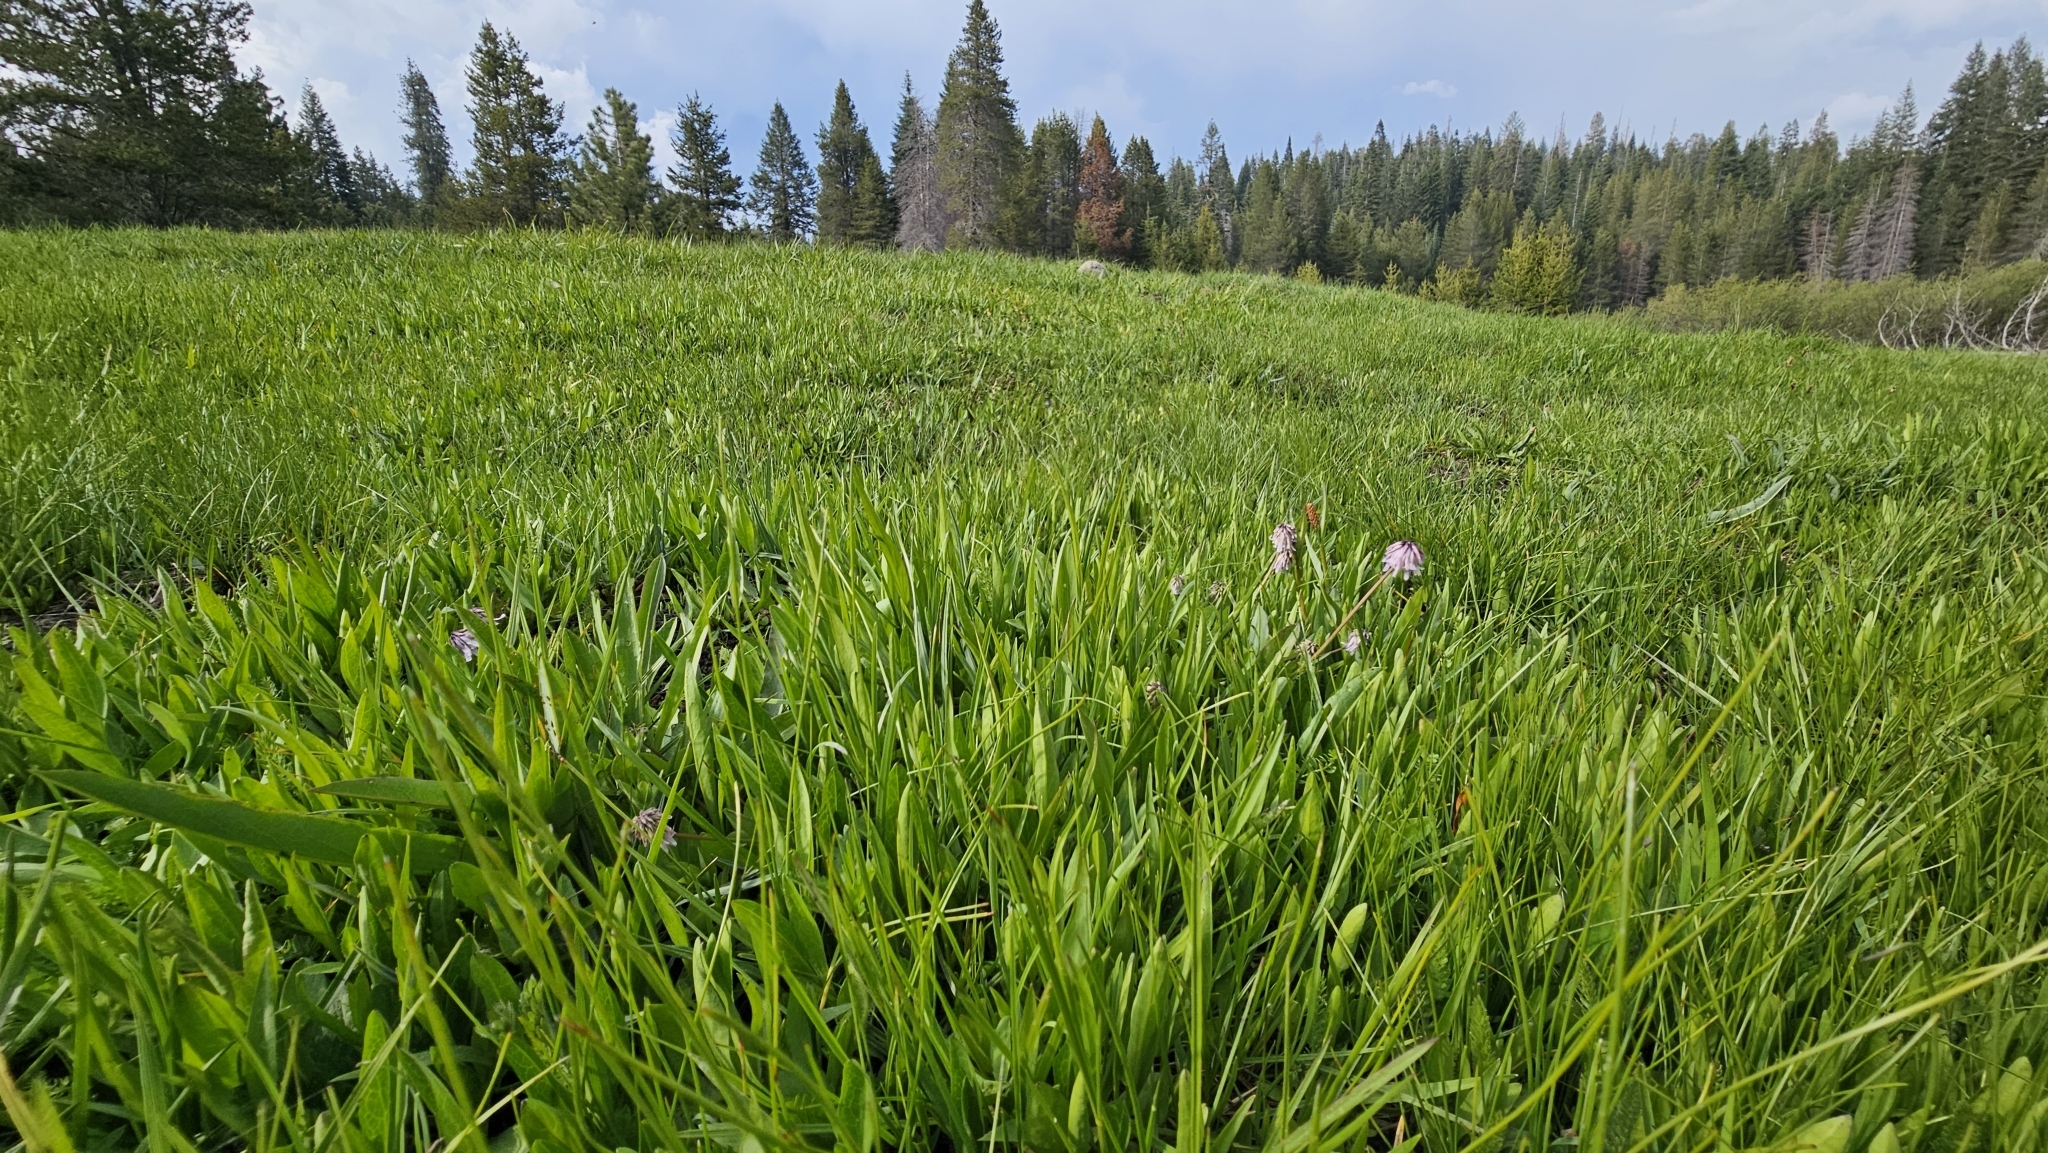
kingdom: Plantae
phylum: Tracheophyta
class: Magnoliopsida
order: Fabales
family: Fabaceae
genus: Trifolium
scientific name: Trifolium bolanderi
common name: Bolander's clover
